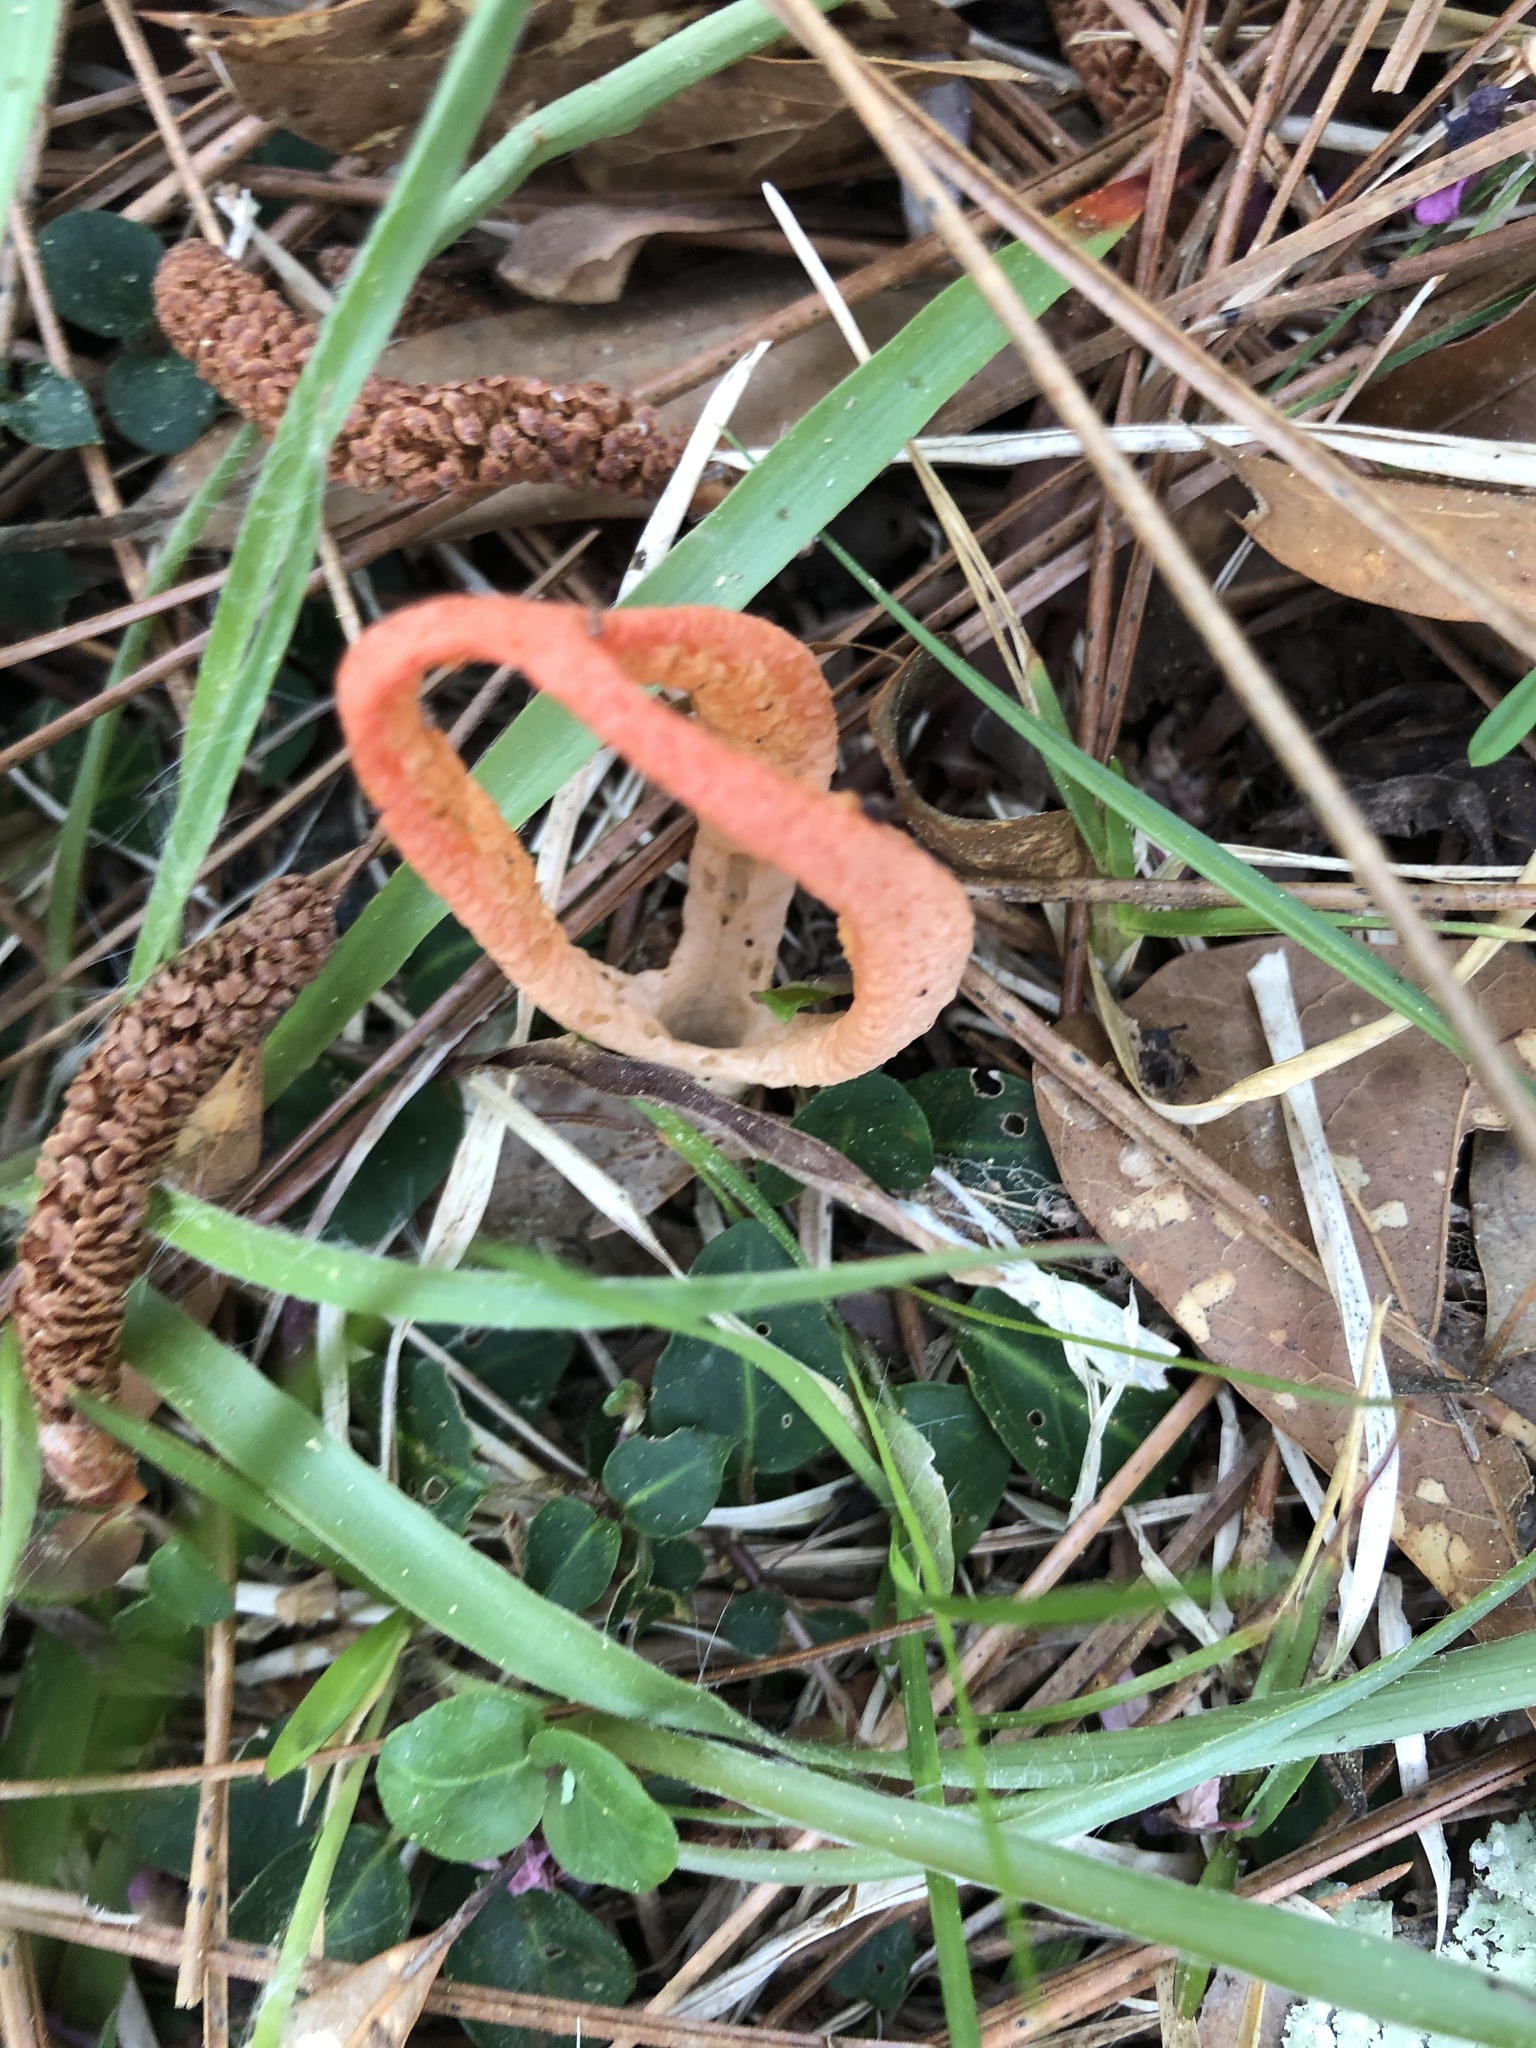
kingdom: Fungi
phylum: Basidiomycota
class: Agaricomycetes
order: Phallales
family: Phallaceae
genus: Pseudocolus
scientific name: Pseudocolus fusiformis
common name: Stinky squid
